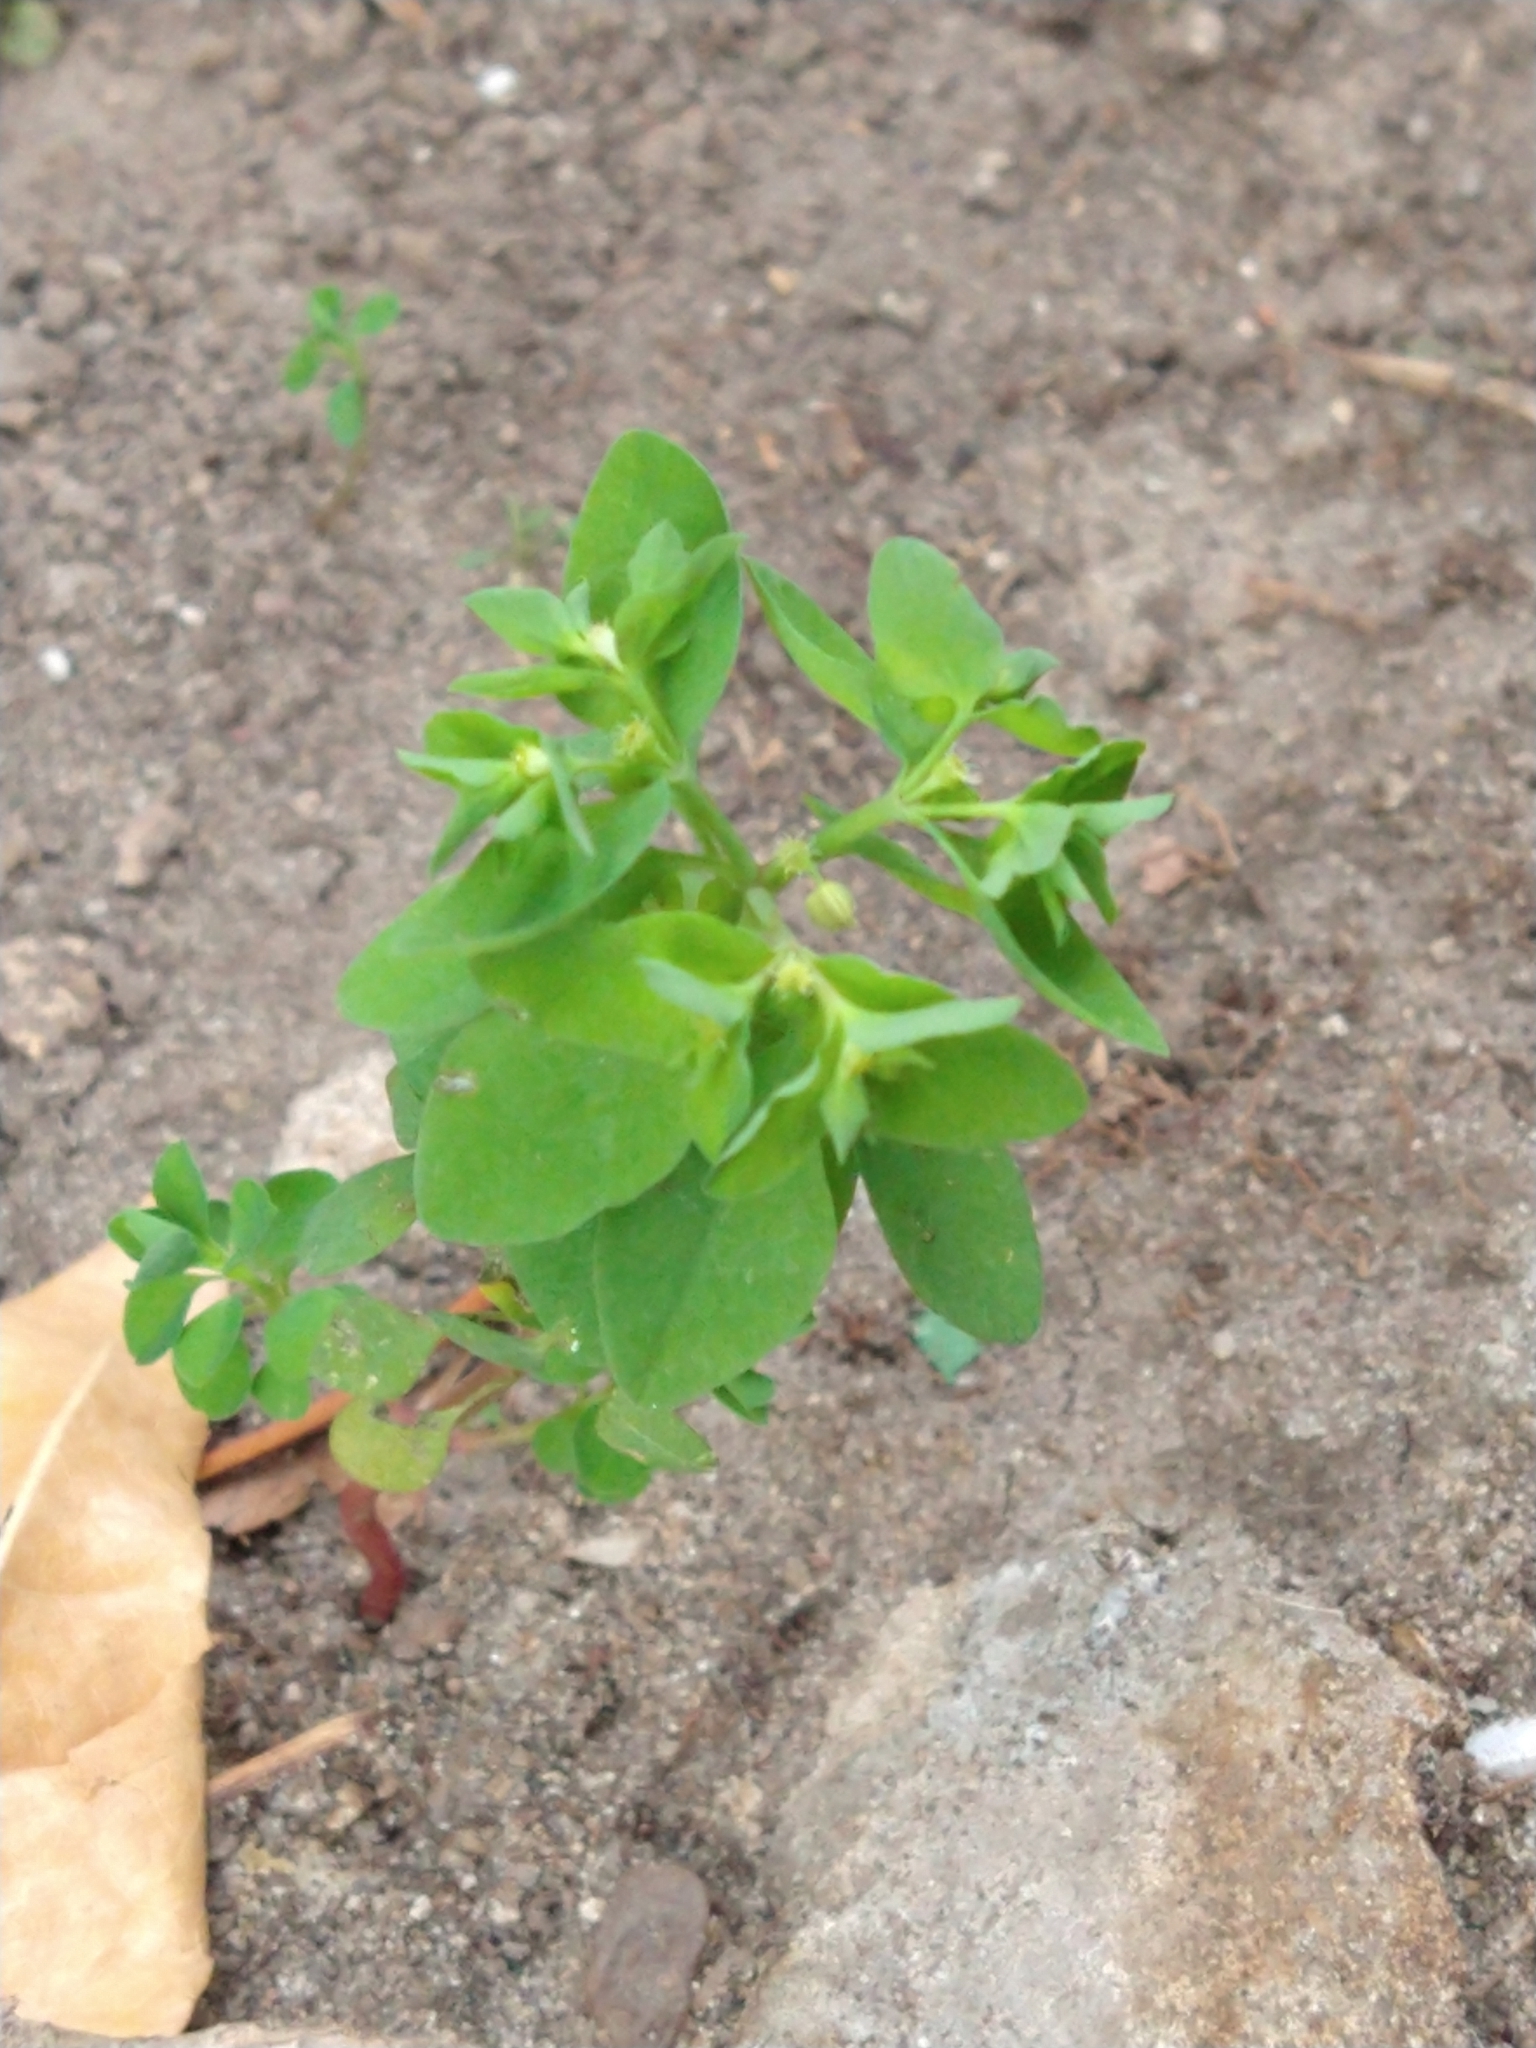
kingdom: Plantae
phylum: Tracheophyta
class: Magnoliopsida
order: Malpighiales
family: Euphorbiaceae
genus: Euphorbia
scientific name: Euphorbia peplus
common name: Petty spurge
